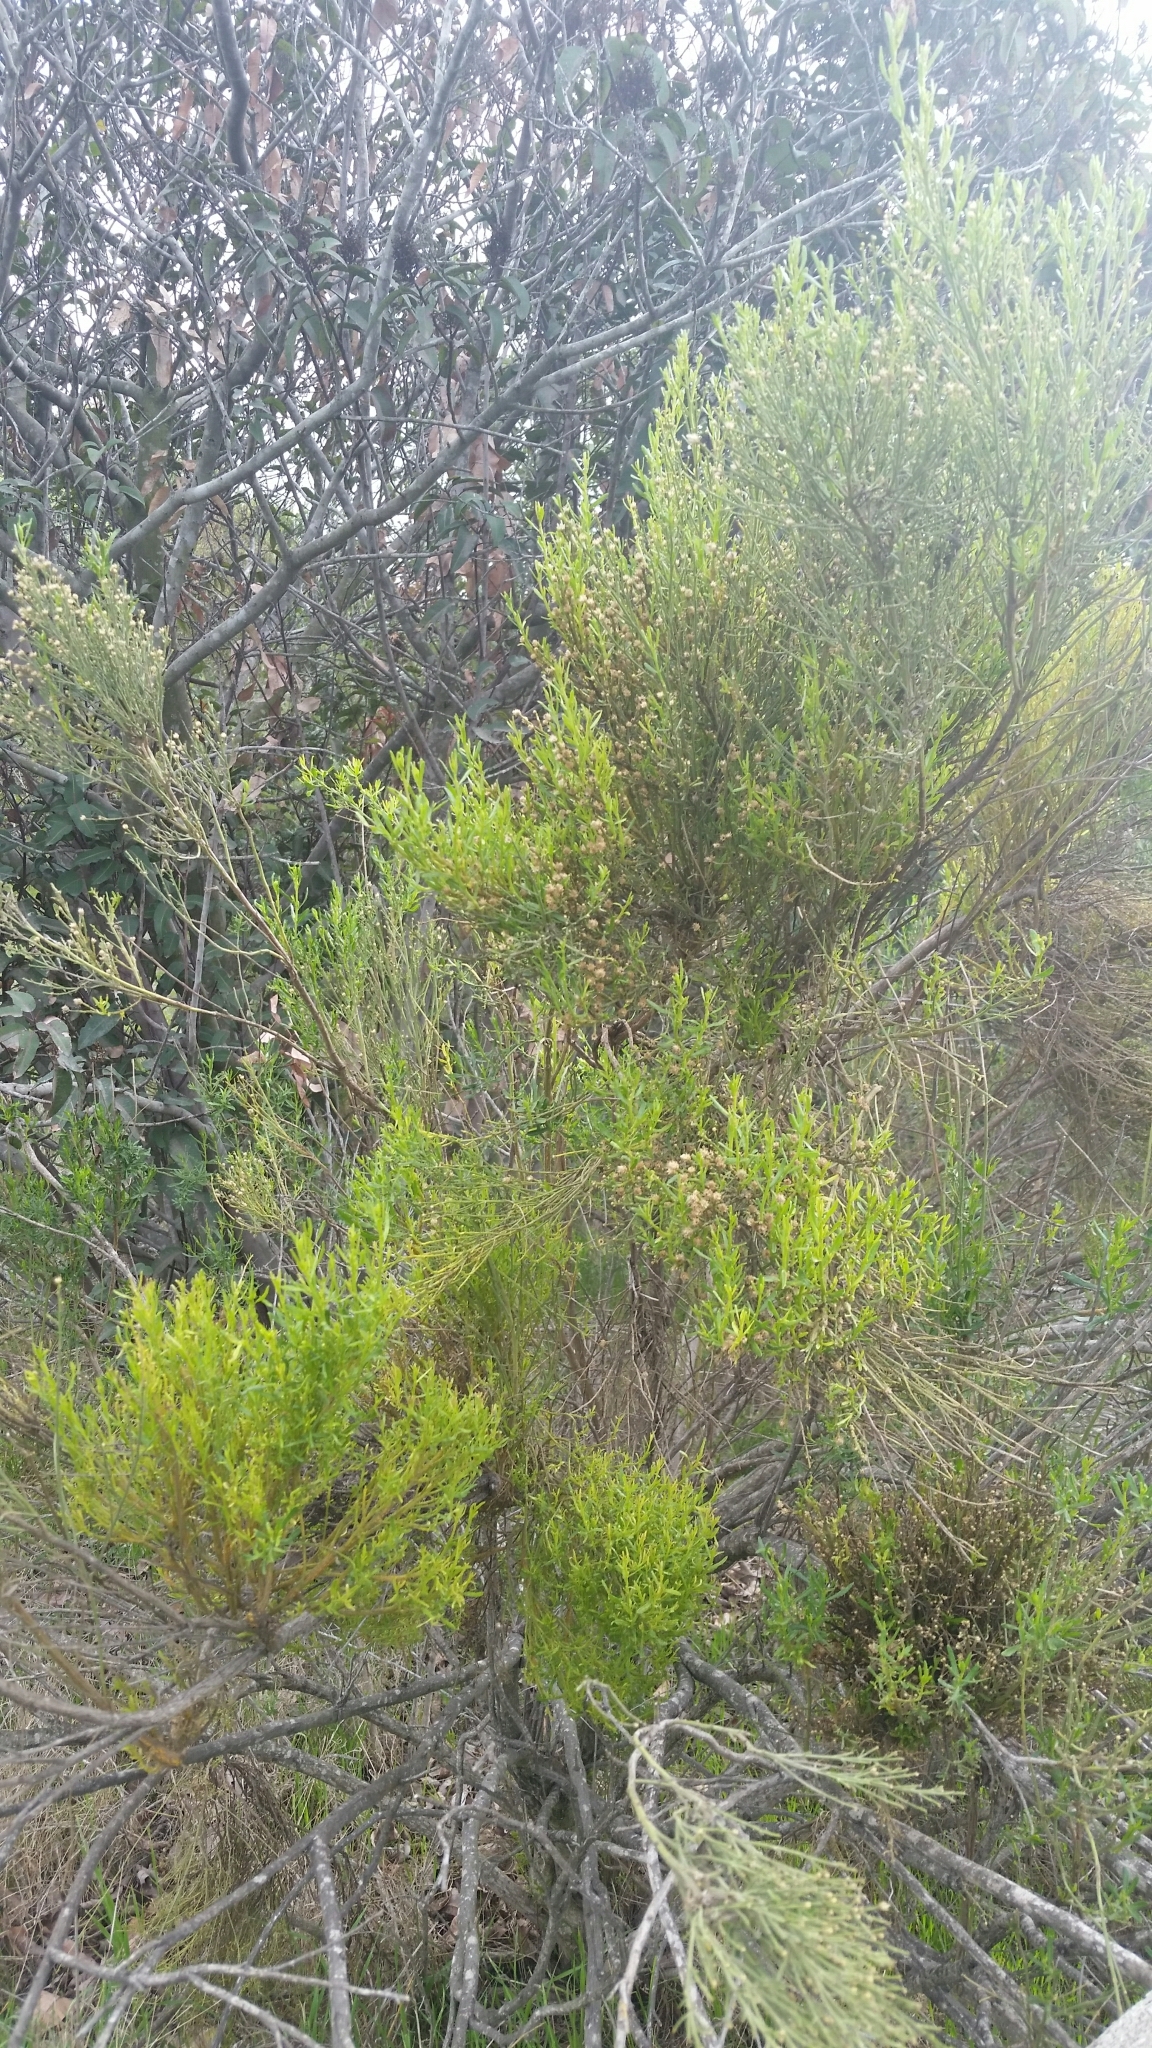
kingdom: Plantae
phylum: Tracheophyta
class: Magnoliopsida
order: Asterales
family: Asteraceae
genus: Baccharis
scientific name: Baccharis sarothroides
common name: Desert-broom
